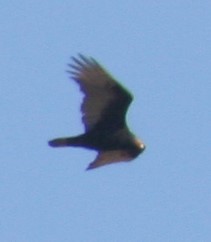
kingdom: Animalia
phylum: Chordata
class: Aves
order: Accipitriformes
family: Cathartidae
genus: Cathartes
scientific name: Cathartes aura
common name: Turkey vulture
